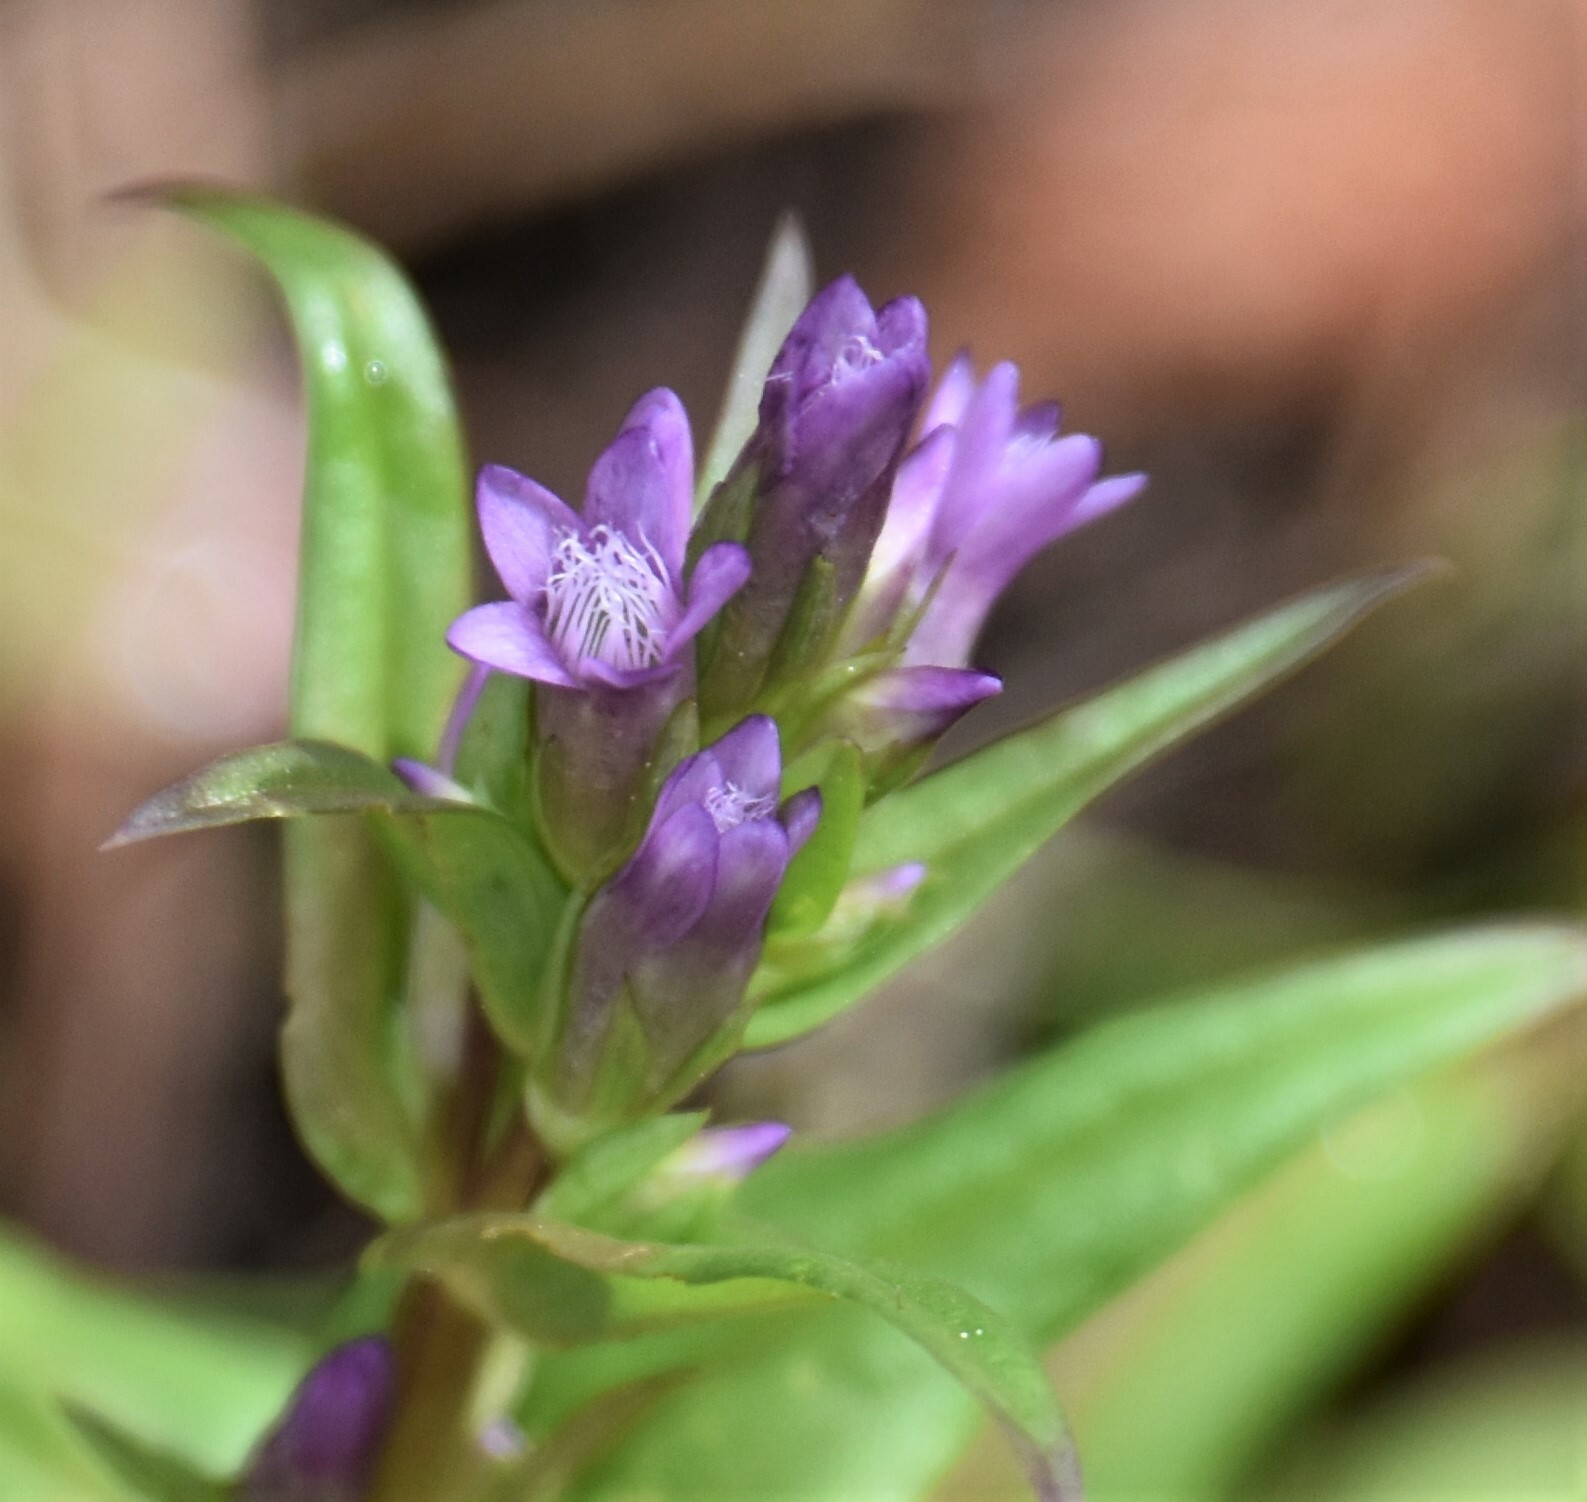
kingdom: Plantae
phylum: Tracheophyta
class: Magnoliopsida
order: Gentianales
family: Gentianaceae
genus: Gentianella
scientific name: Gentianella amarella
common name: Autumn gentian
